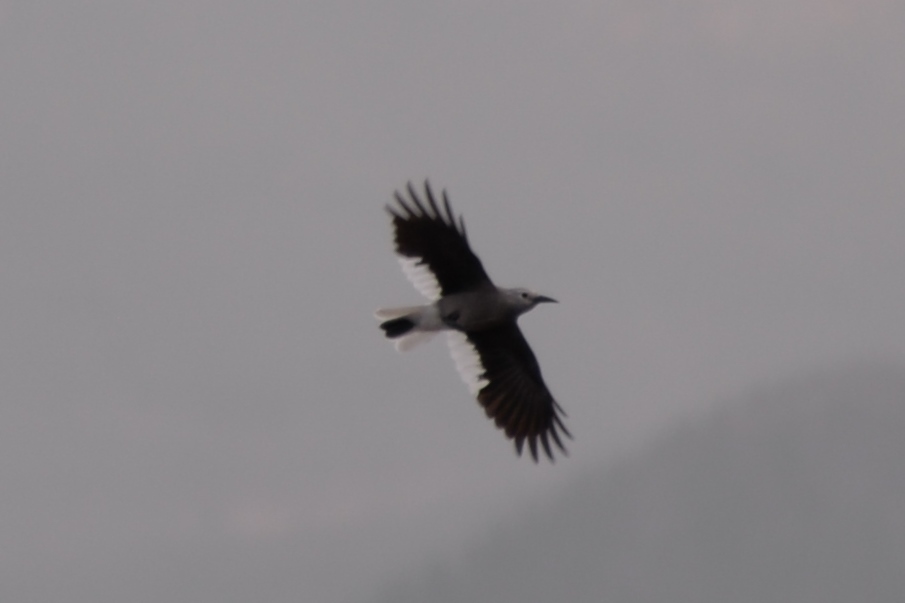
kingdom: Animalia
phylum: Chordata
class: Aves
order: Passeriformes
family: Corvidae
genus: Nucifraga
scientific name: Nucifraga columbiana
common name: Clark's nutcracker
